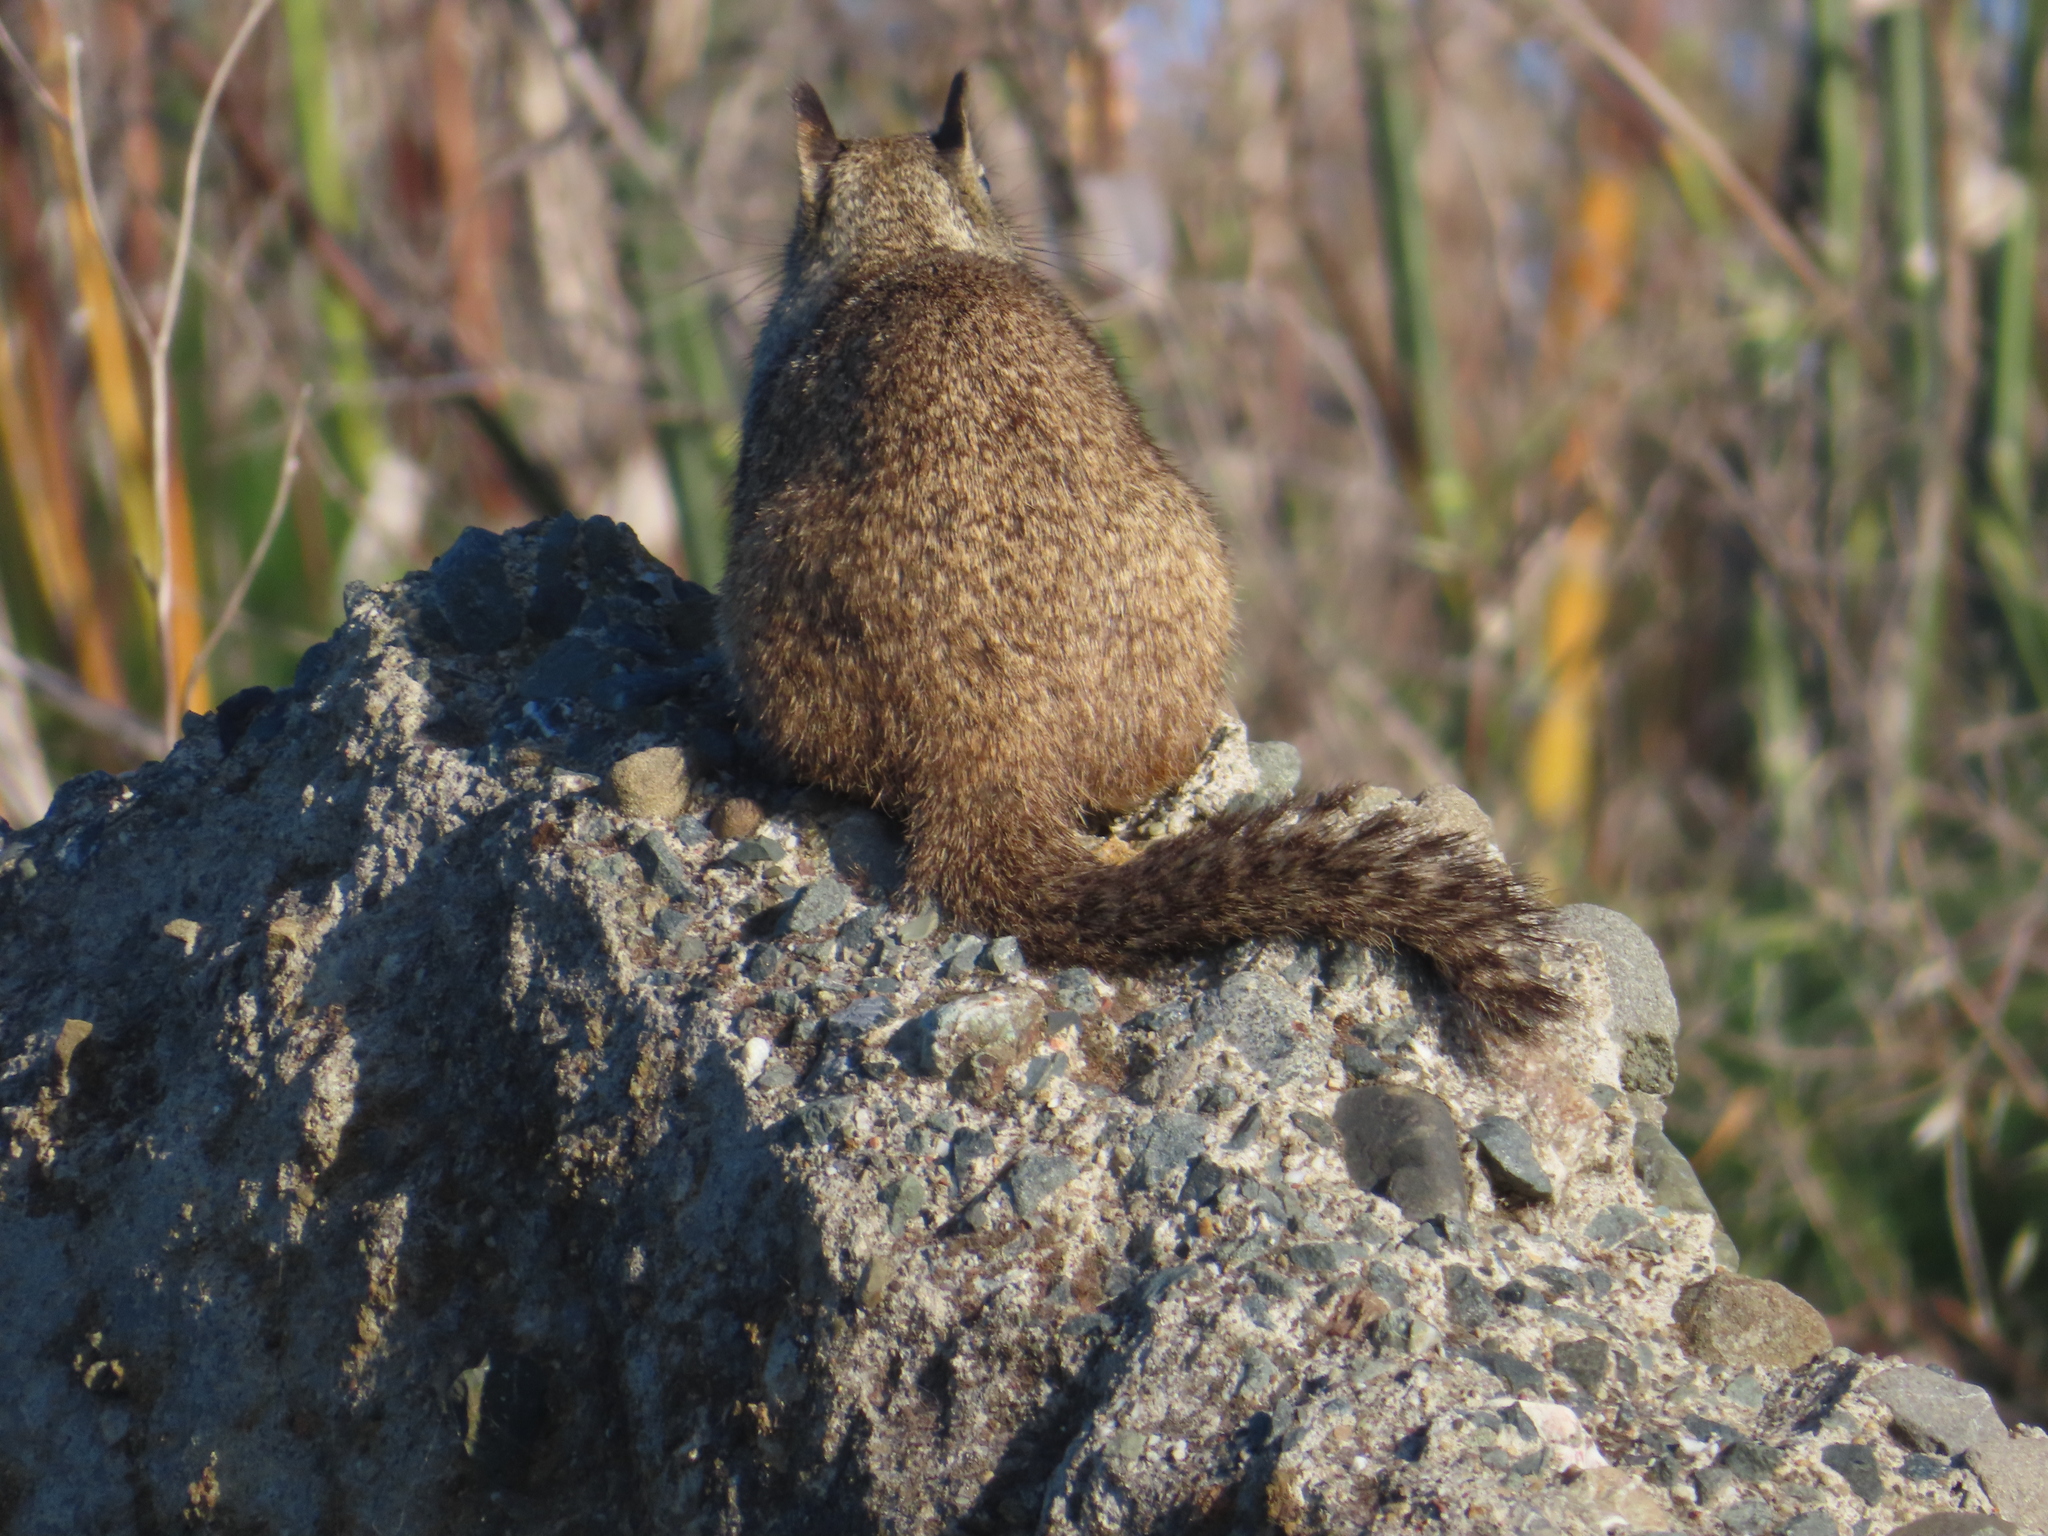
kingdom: Animalia
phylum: Chordata
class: Mammalia
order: Rodentia
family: Sciuridae
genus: Otospermophilus
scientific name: Otospermophilus beecheyi
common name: California ground squirrel
